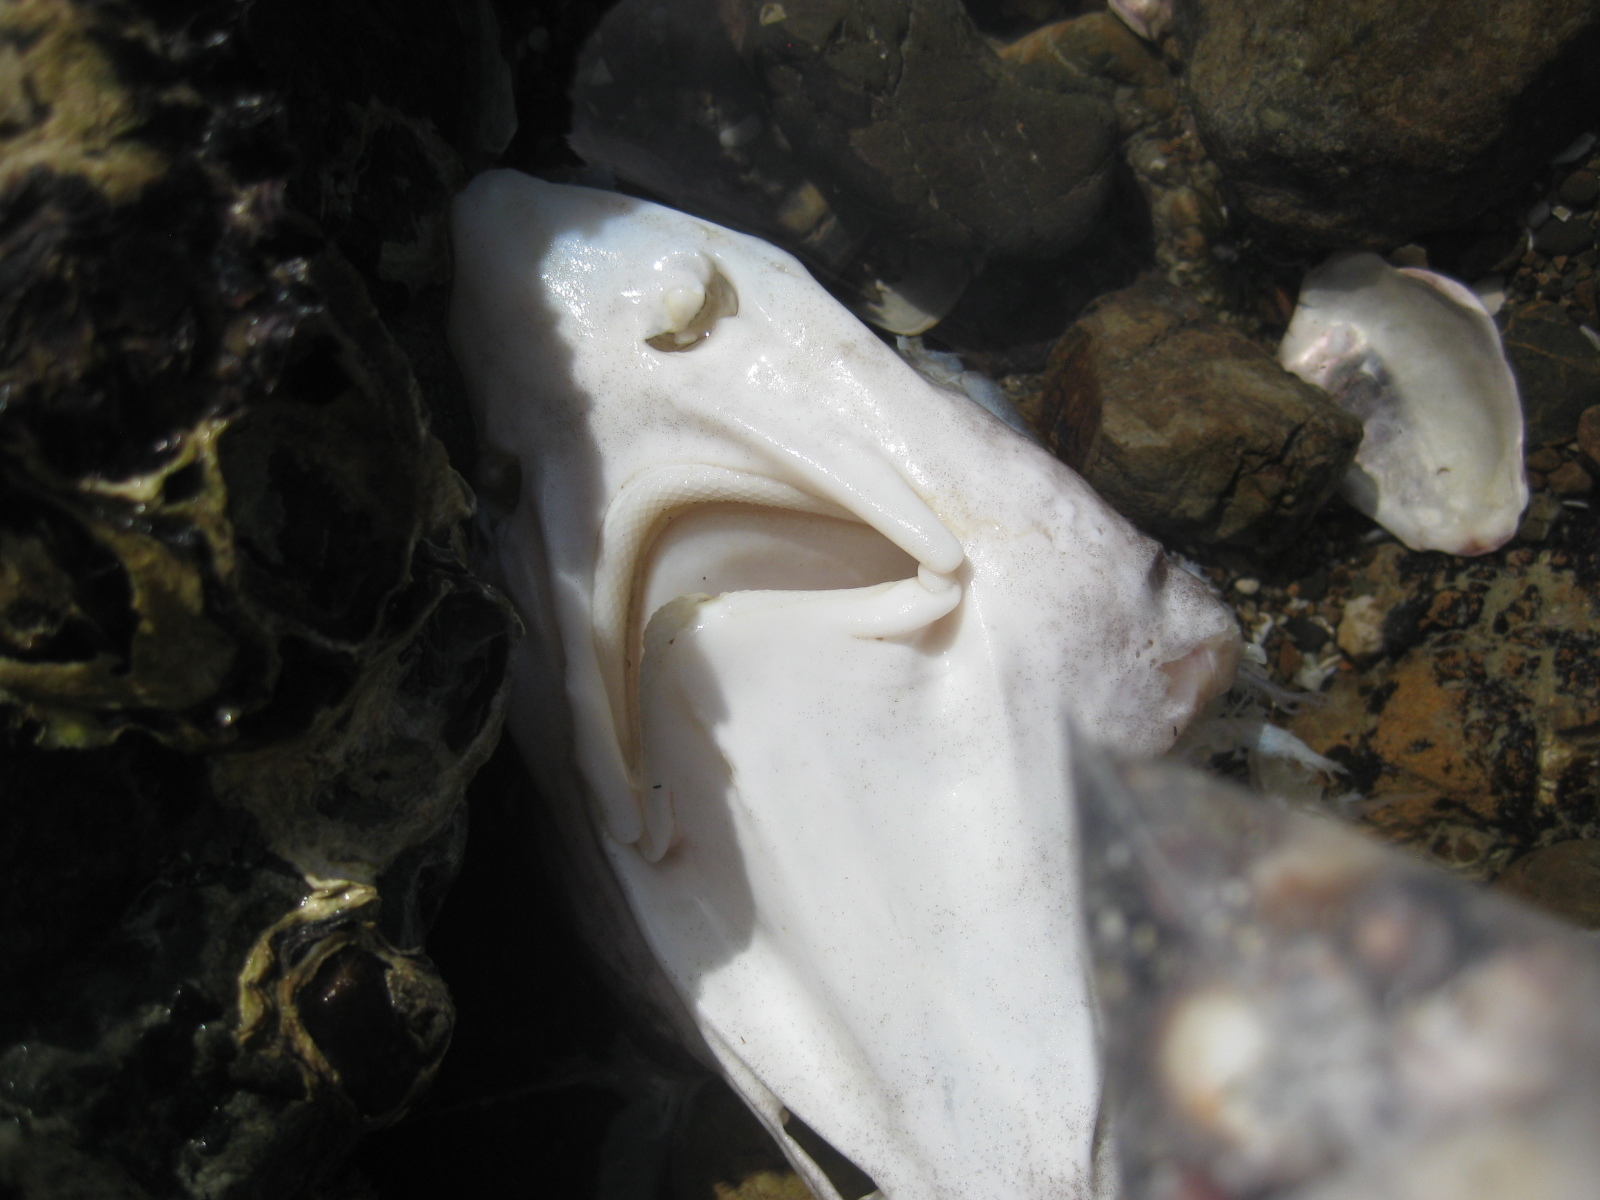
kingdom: Animalia
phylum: Chordata
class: Elasmobranchii
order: Carcharhiniformes
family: Triakidae
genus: Mustelus
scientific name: Mustelus lenticulatus
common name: Gummy shark
